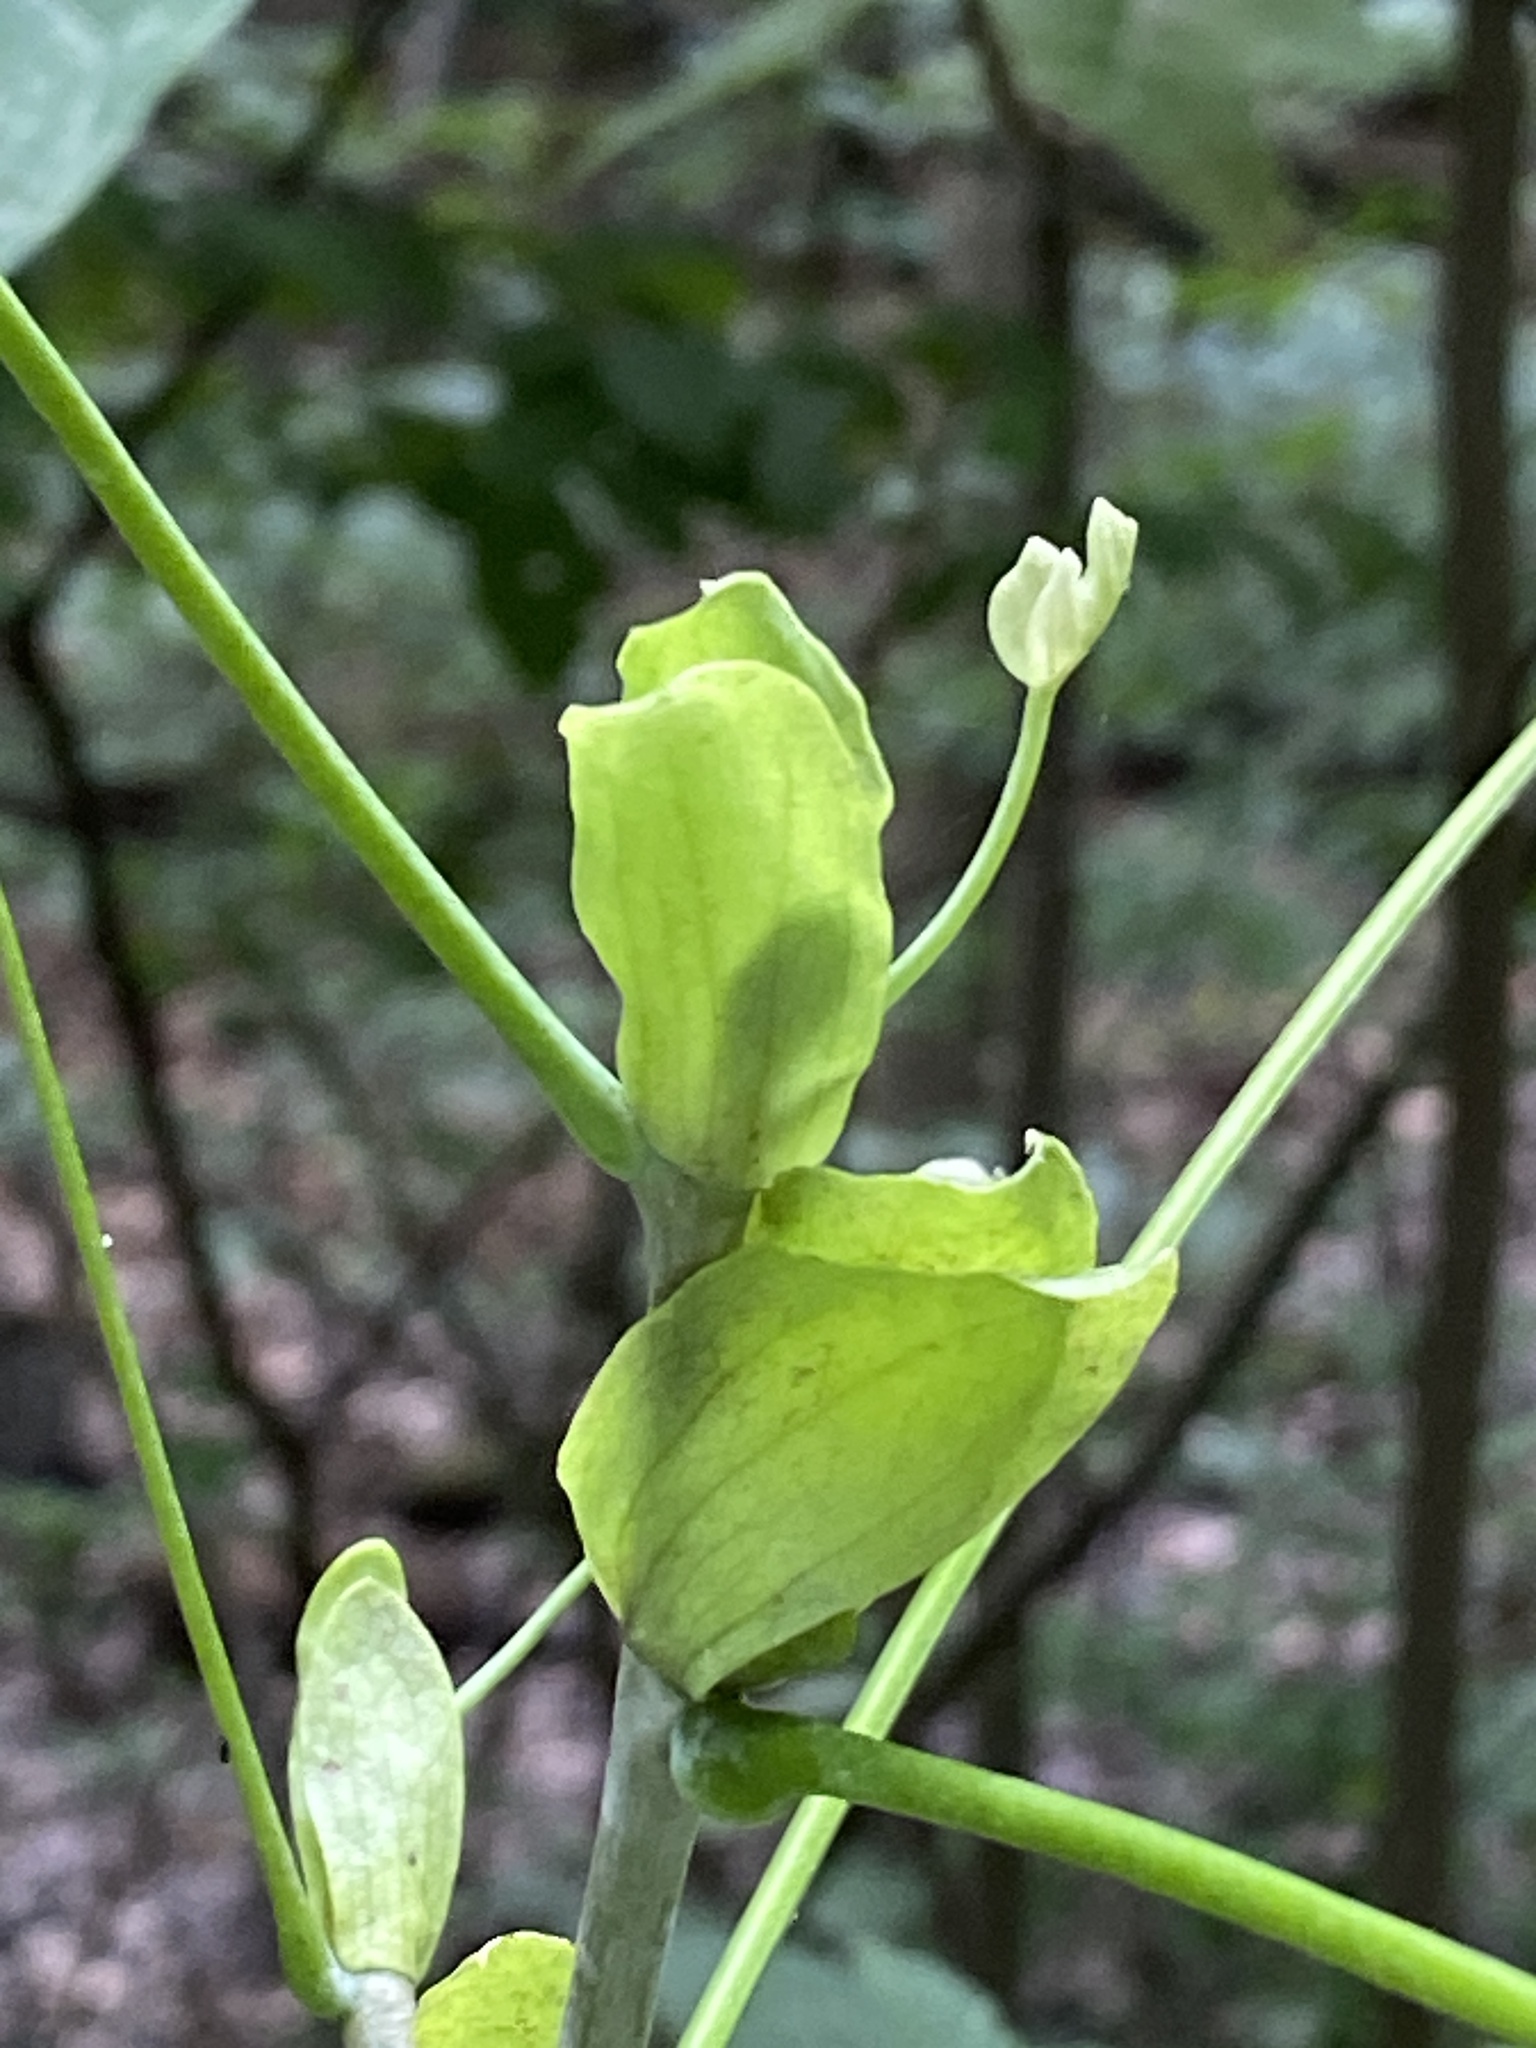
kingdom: Plantae
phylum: Tracheophyta
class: Magnoliopsida
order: Magnoliales
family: Magnoliaceae
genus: Liriodendron
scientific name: Liriodendron tulipifera
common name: Tulip tree
